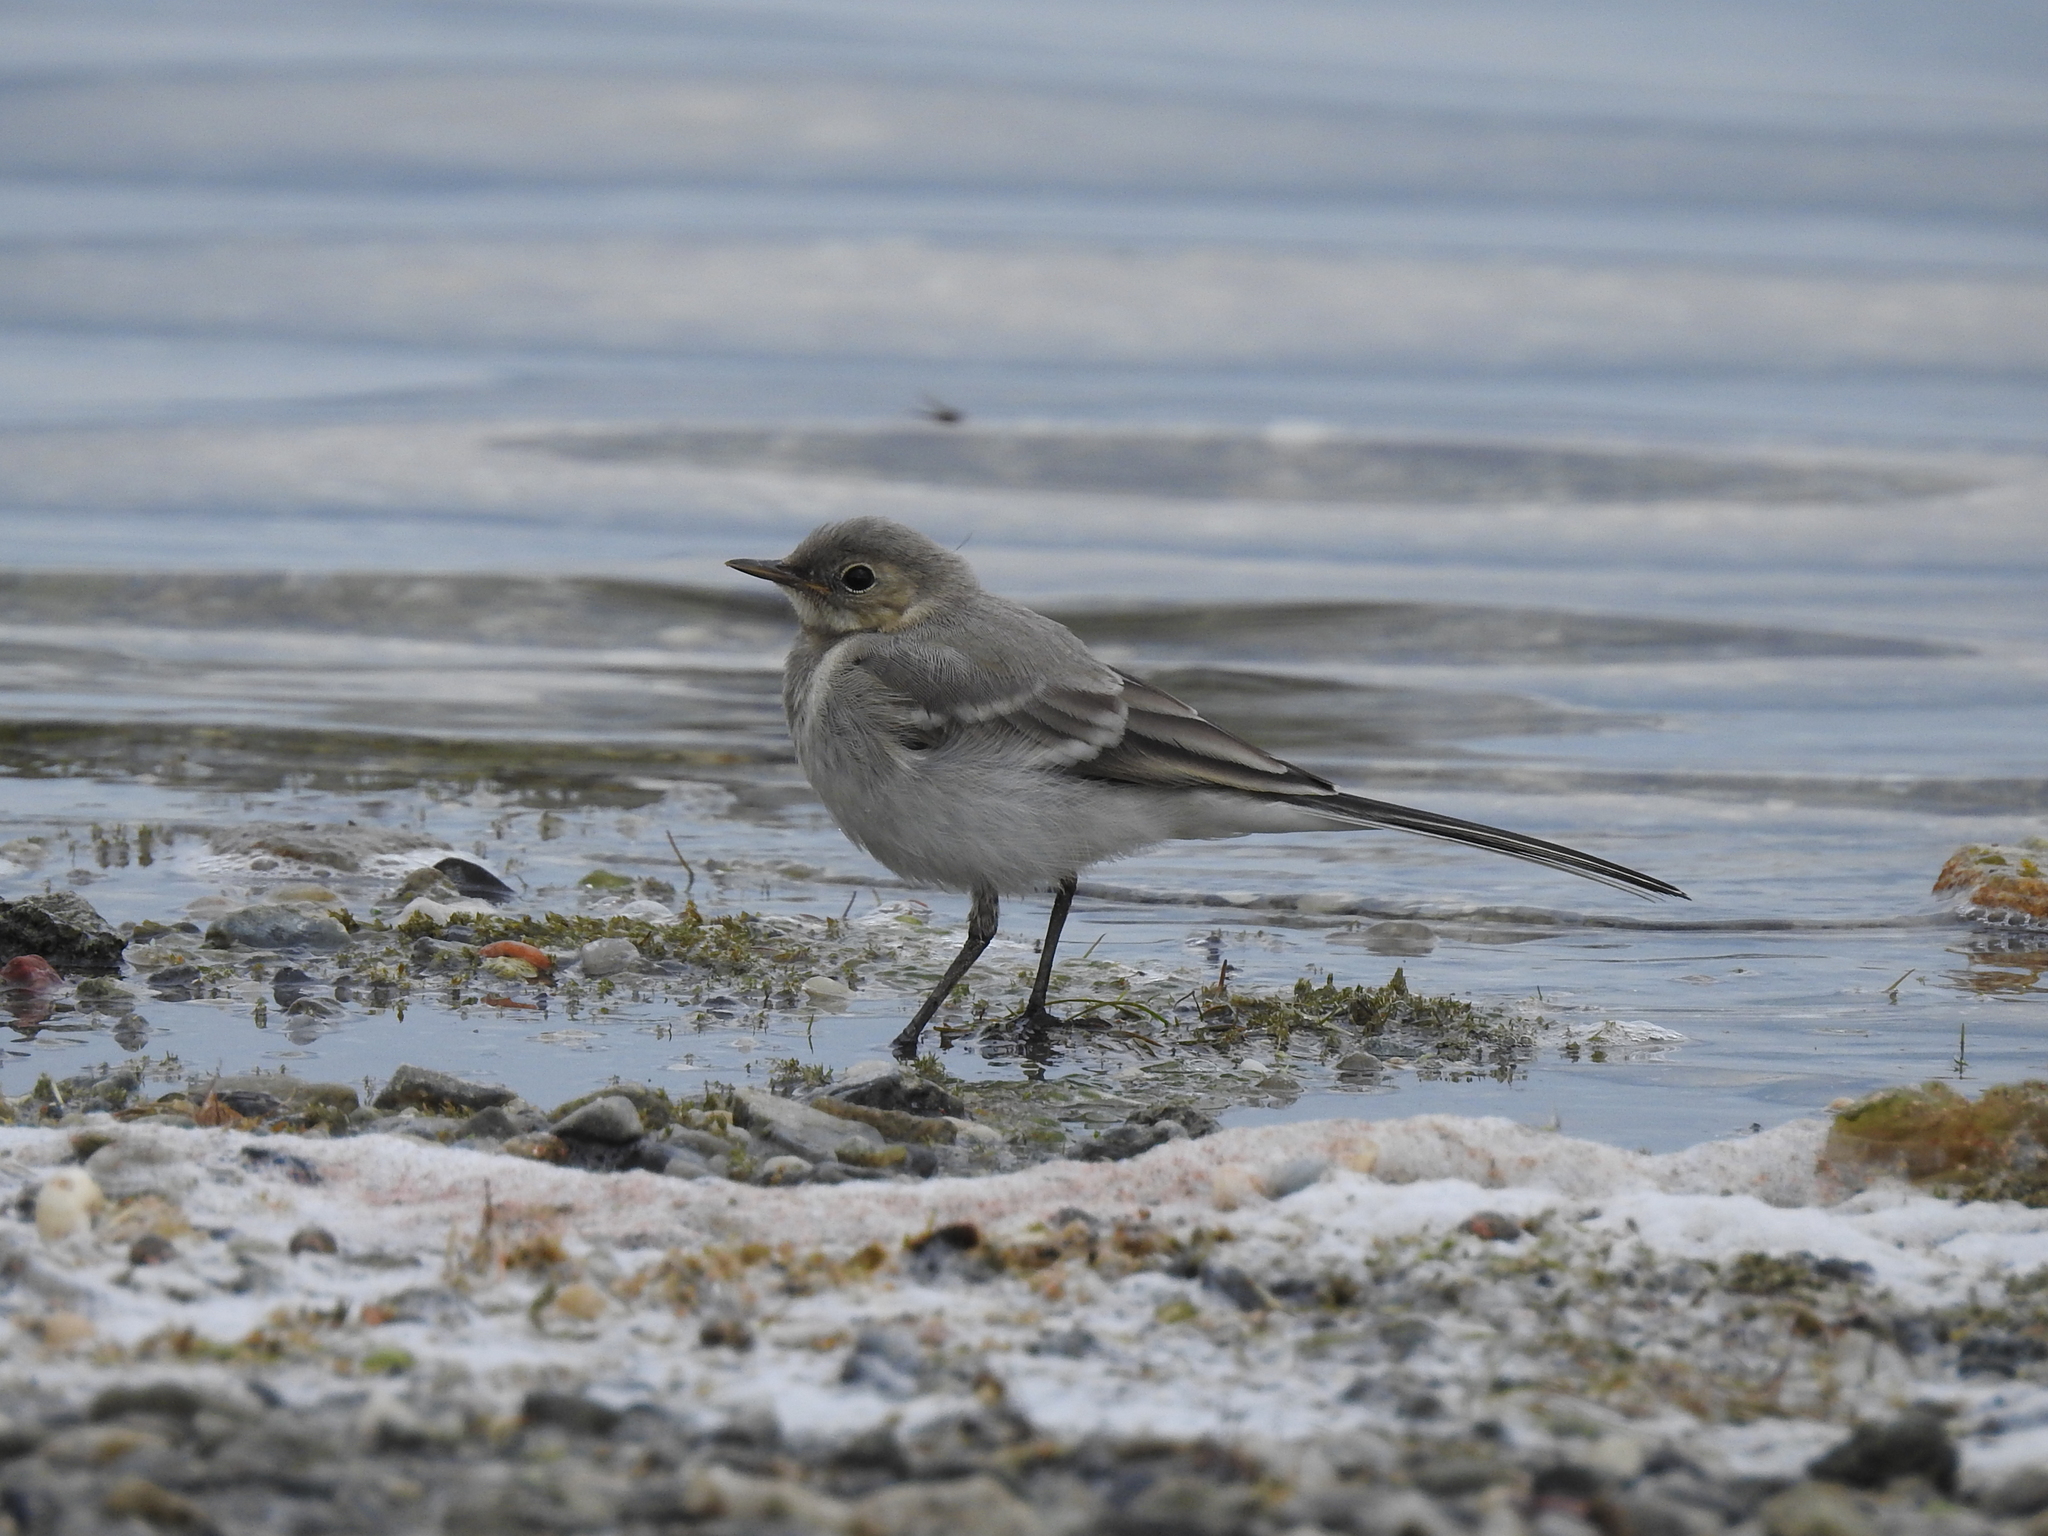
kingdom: Animalia
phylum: Chordata
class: Aves
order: Passeriformes
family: Motacillidae
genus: Motacilla
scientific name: Motacilla alba
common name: White wagtail
